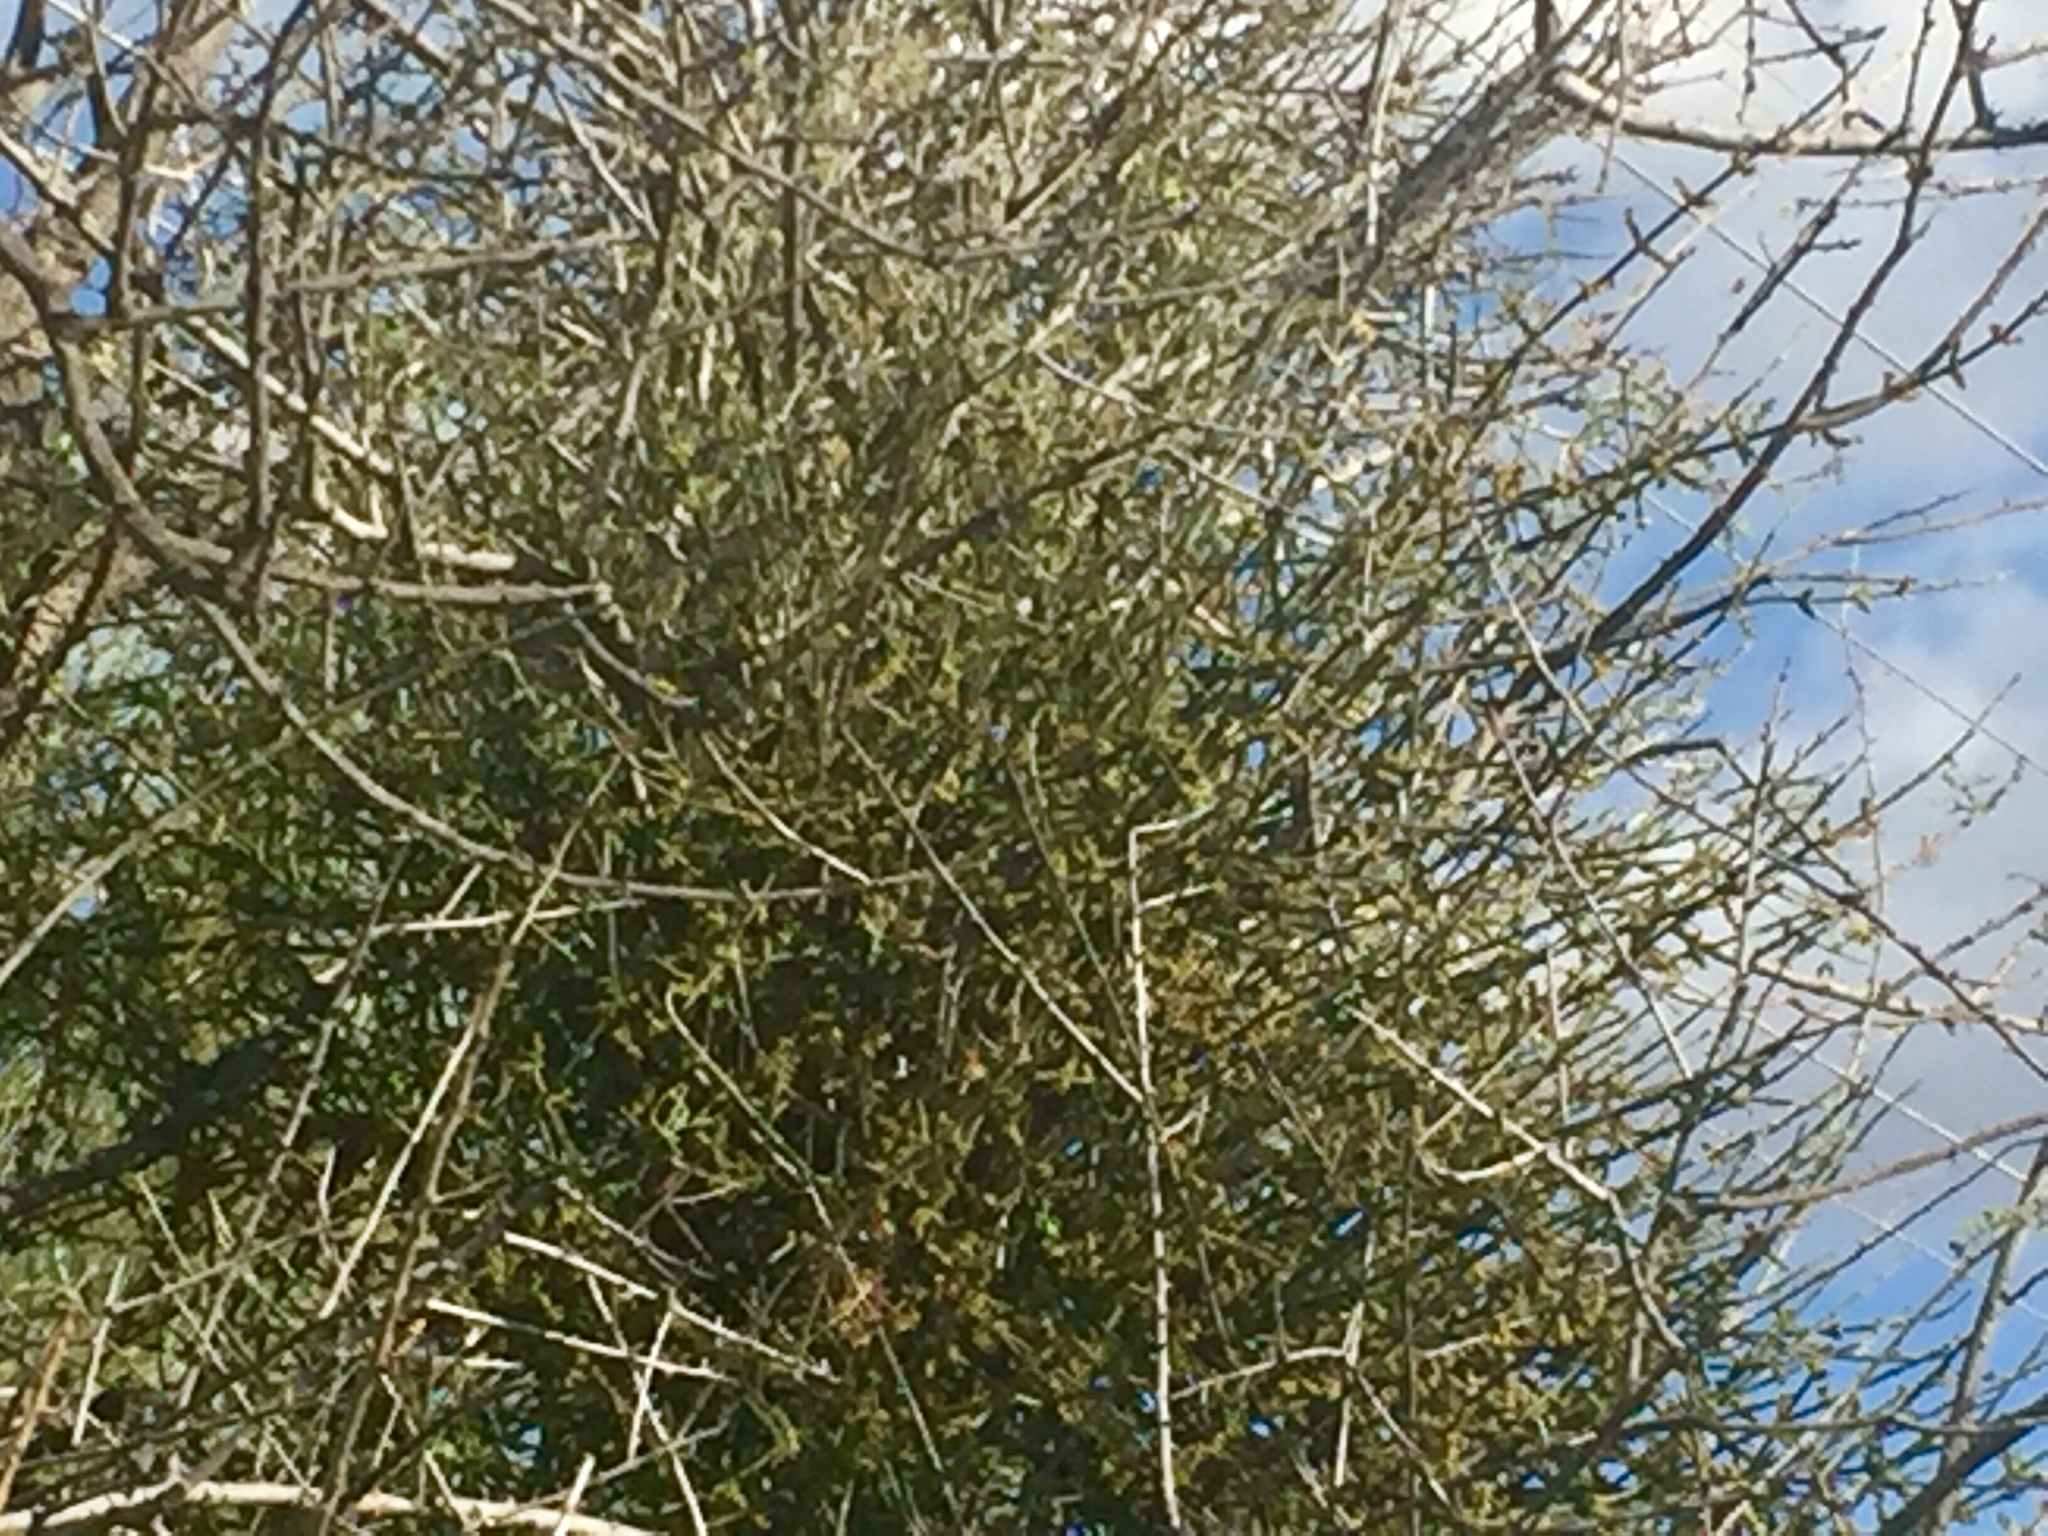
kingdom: Plantae
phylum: Tracheophyta
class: Magnoliopsida
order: Fabales
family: Fabaceae
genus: Parkinsonia
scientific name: Parkinsonia microphylla
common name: Yellow paloverde
